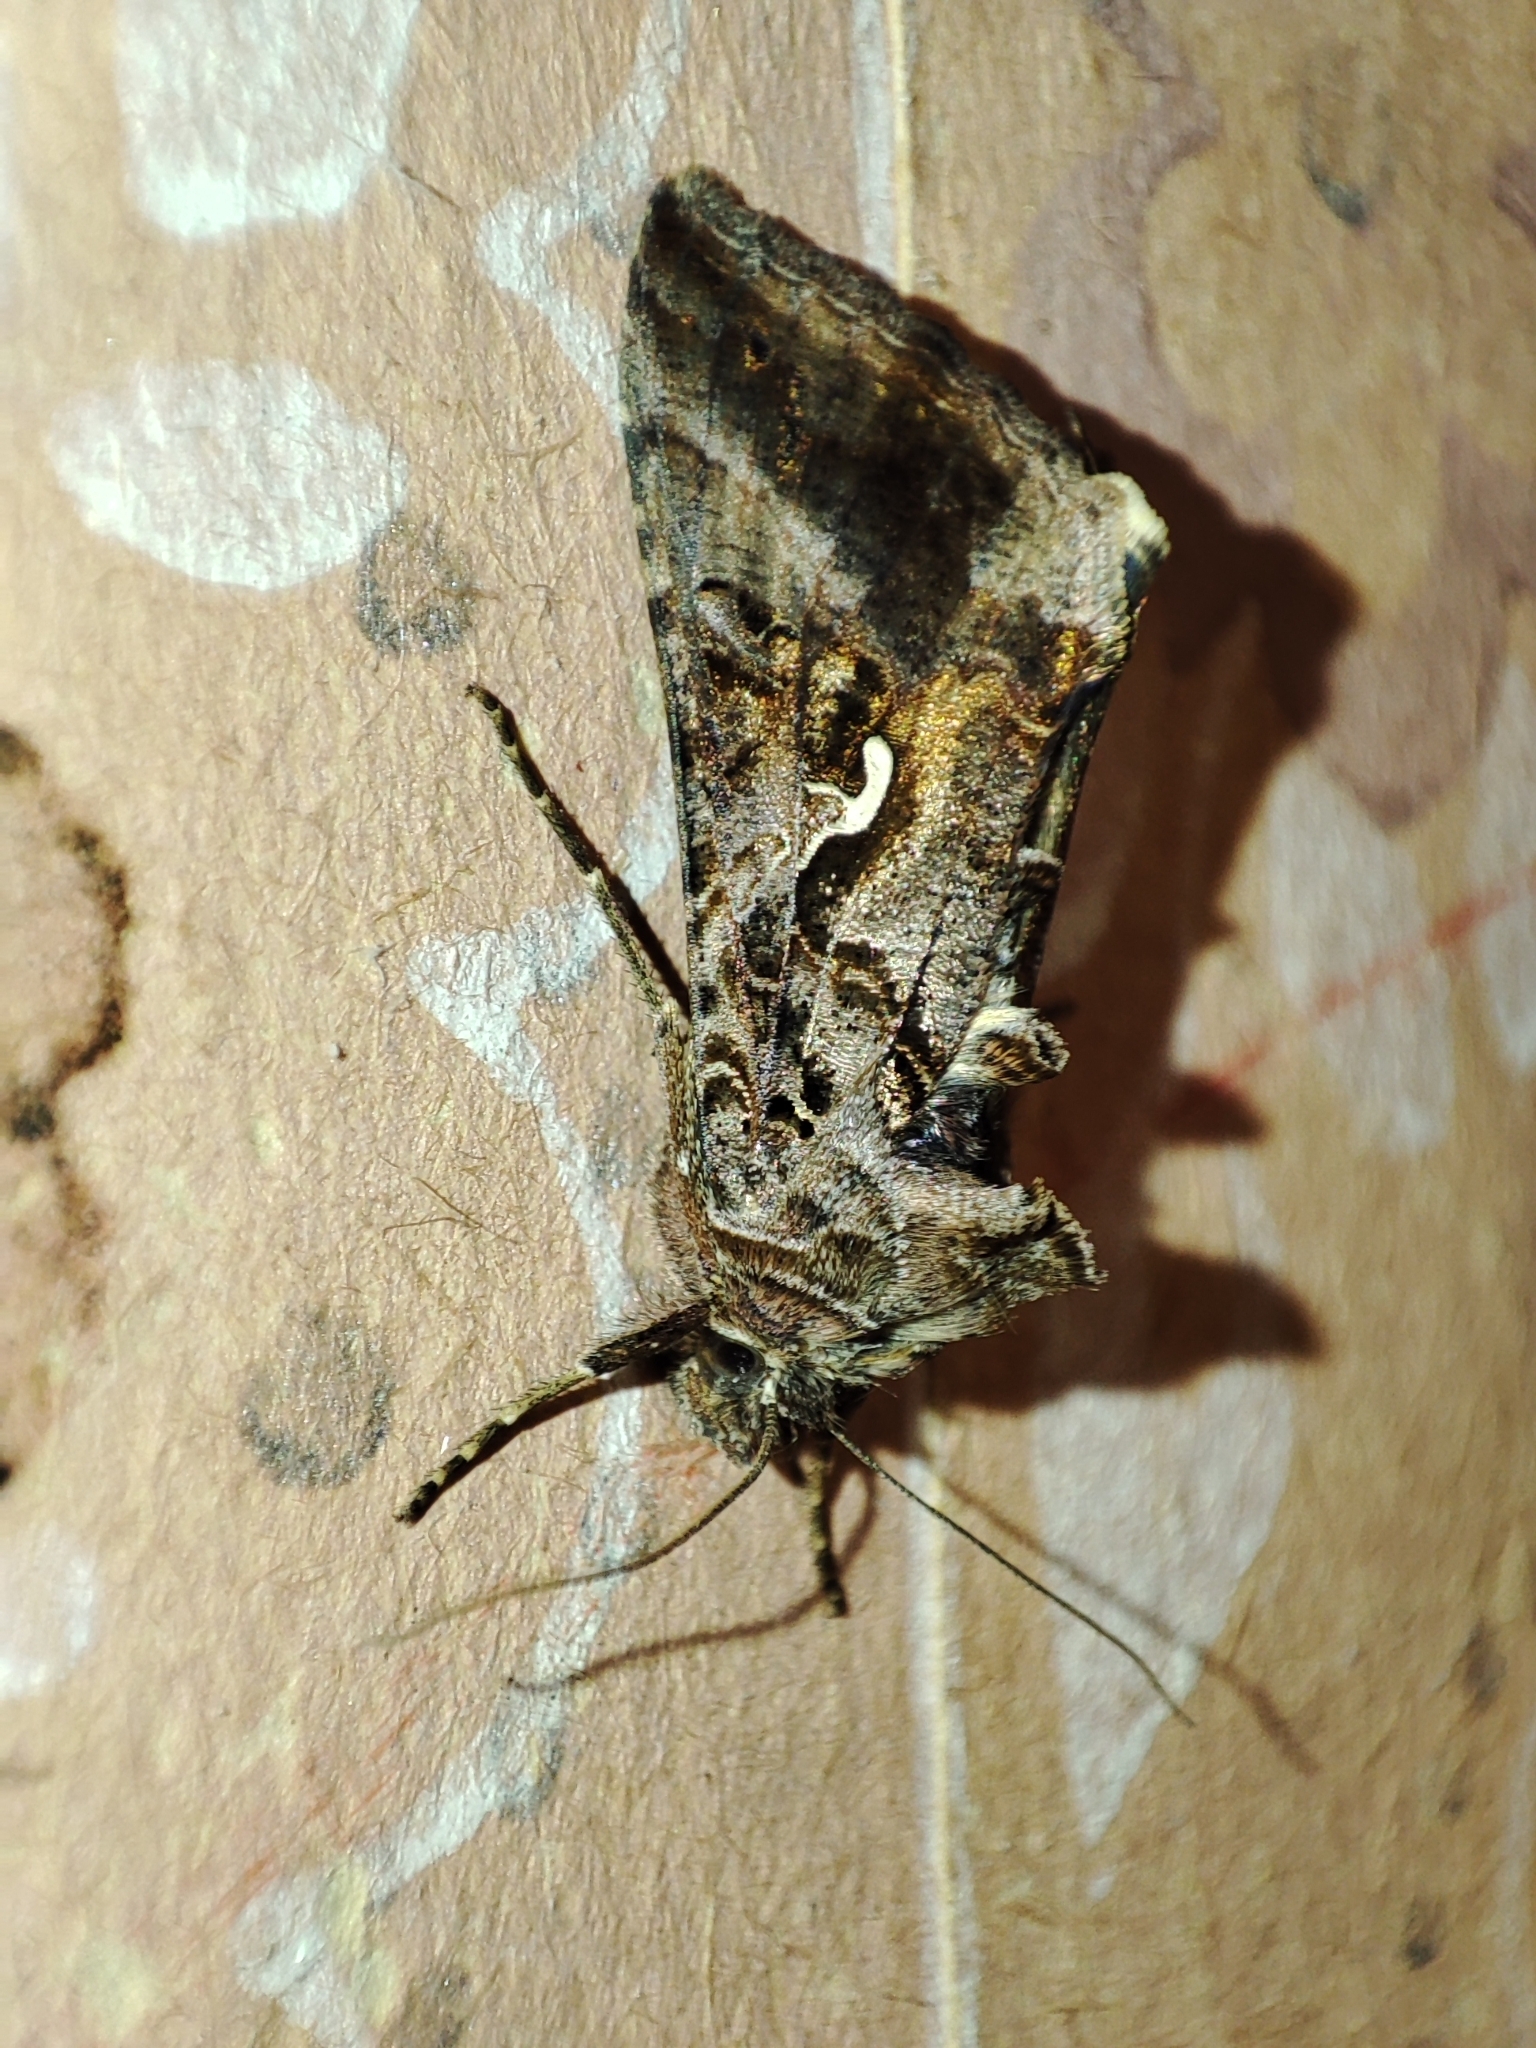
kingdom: Animalia
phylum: Arthropoda
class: Insecta
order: Lepidoptera
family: Noctuidae
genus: Autographa
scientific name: Autographa gamma
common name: Silver y
